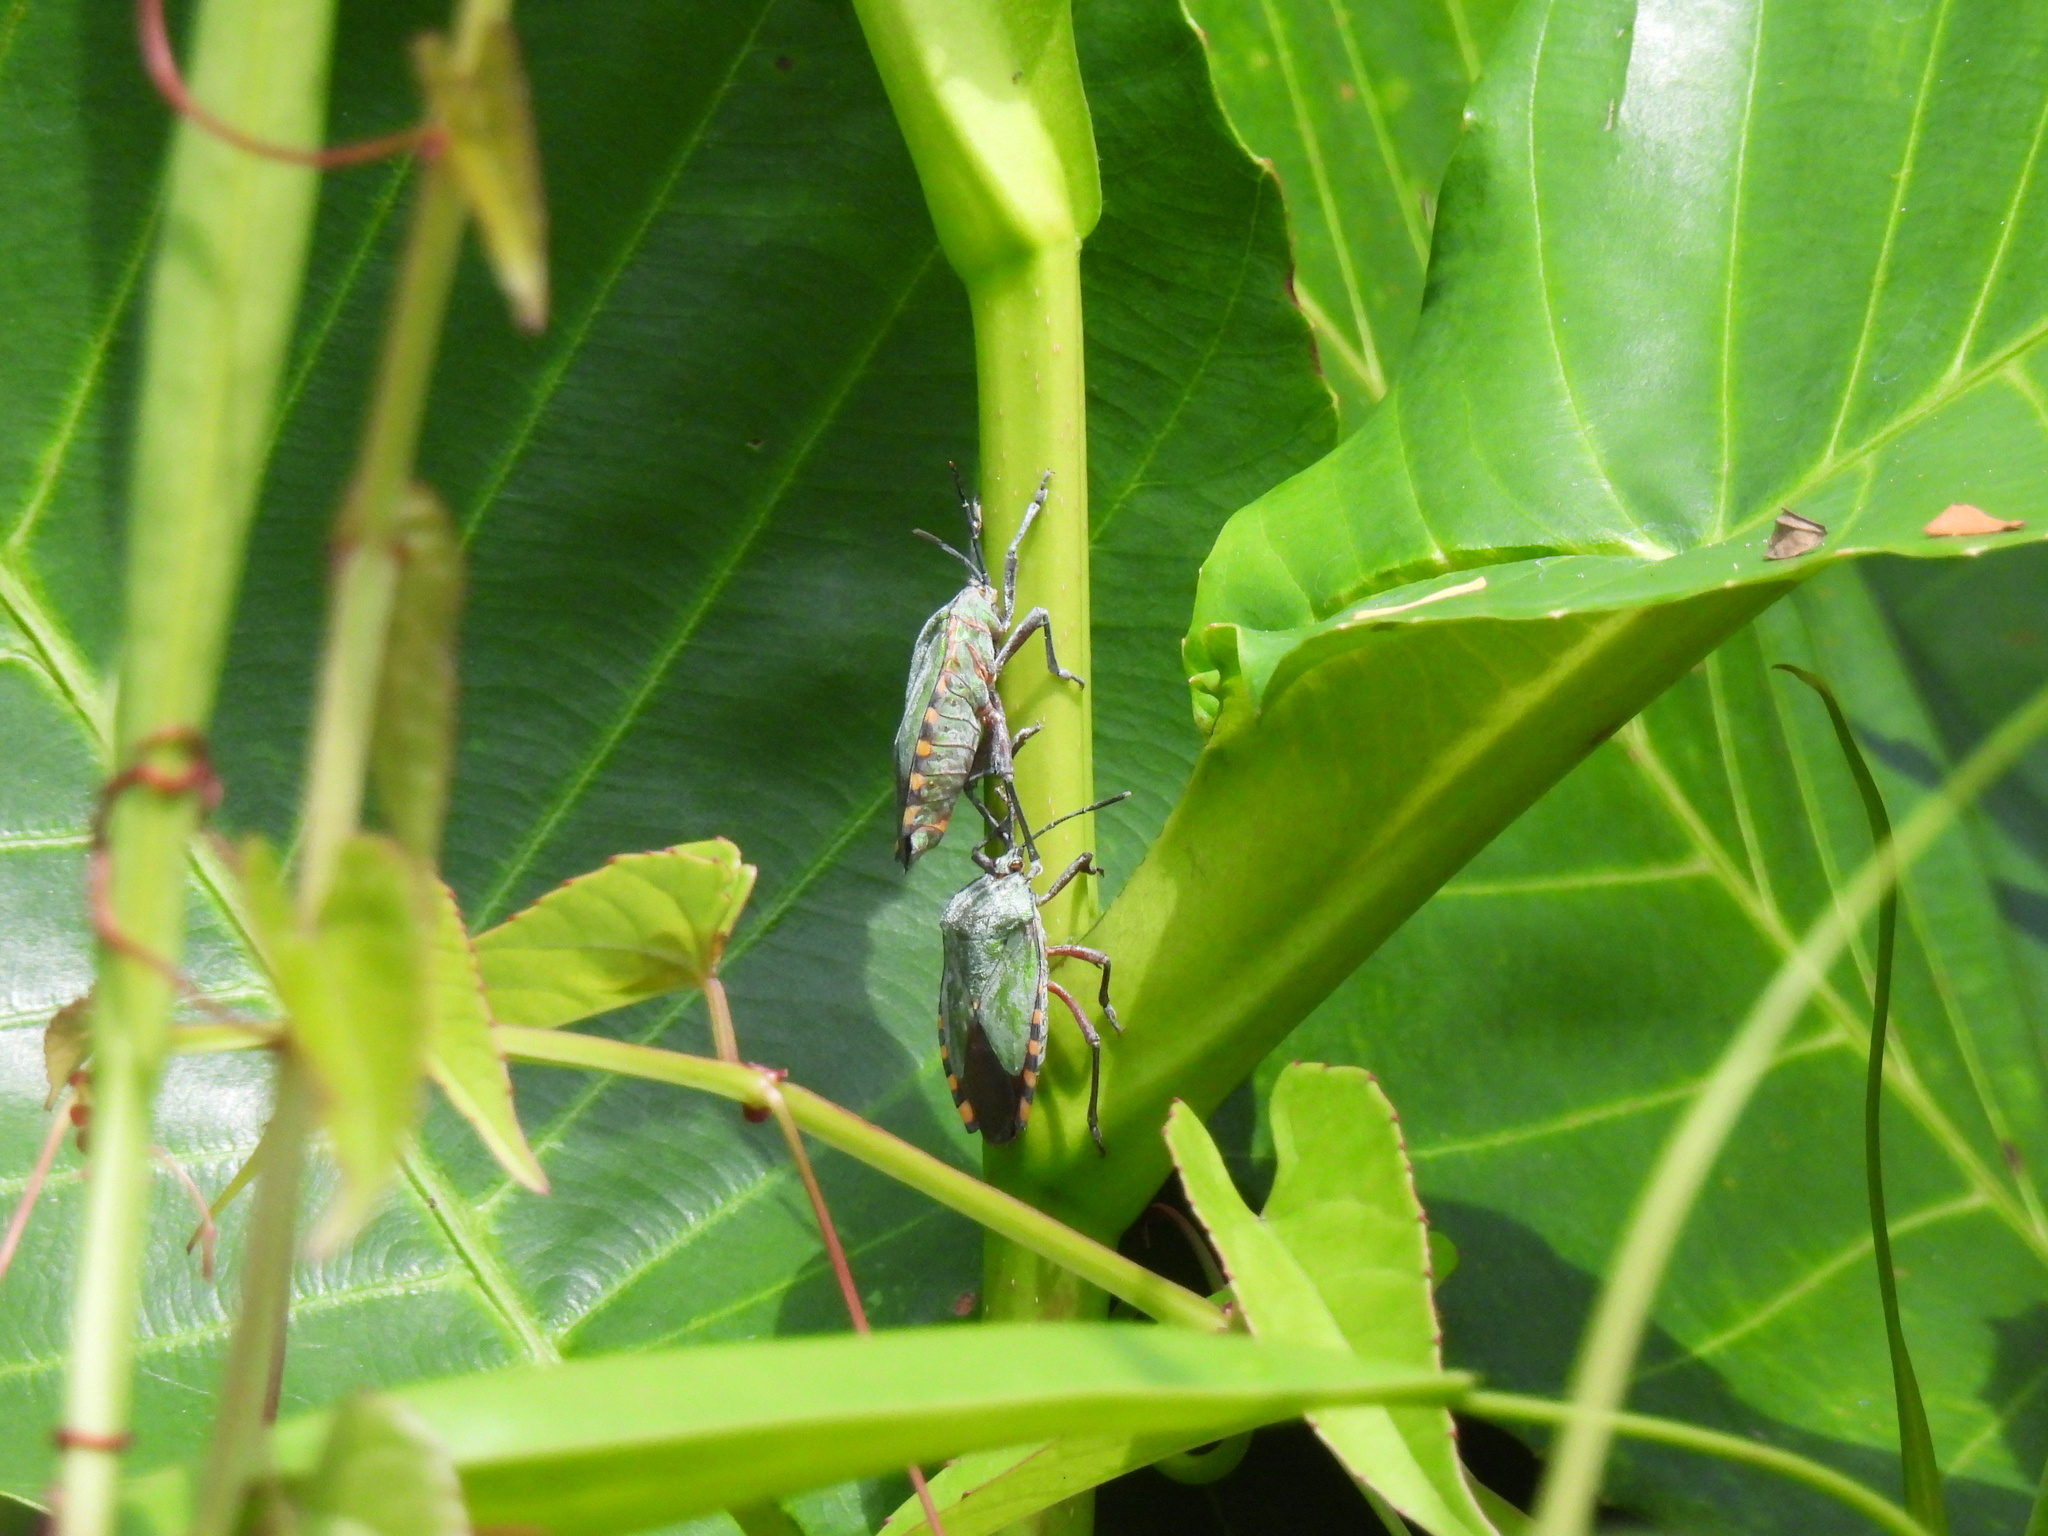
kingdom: Animalia
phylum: Arthropoda
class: Insecta
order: Hemiptera
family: Tessaratomidae
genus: Pycanum
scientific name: Pycanum alternatum
